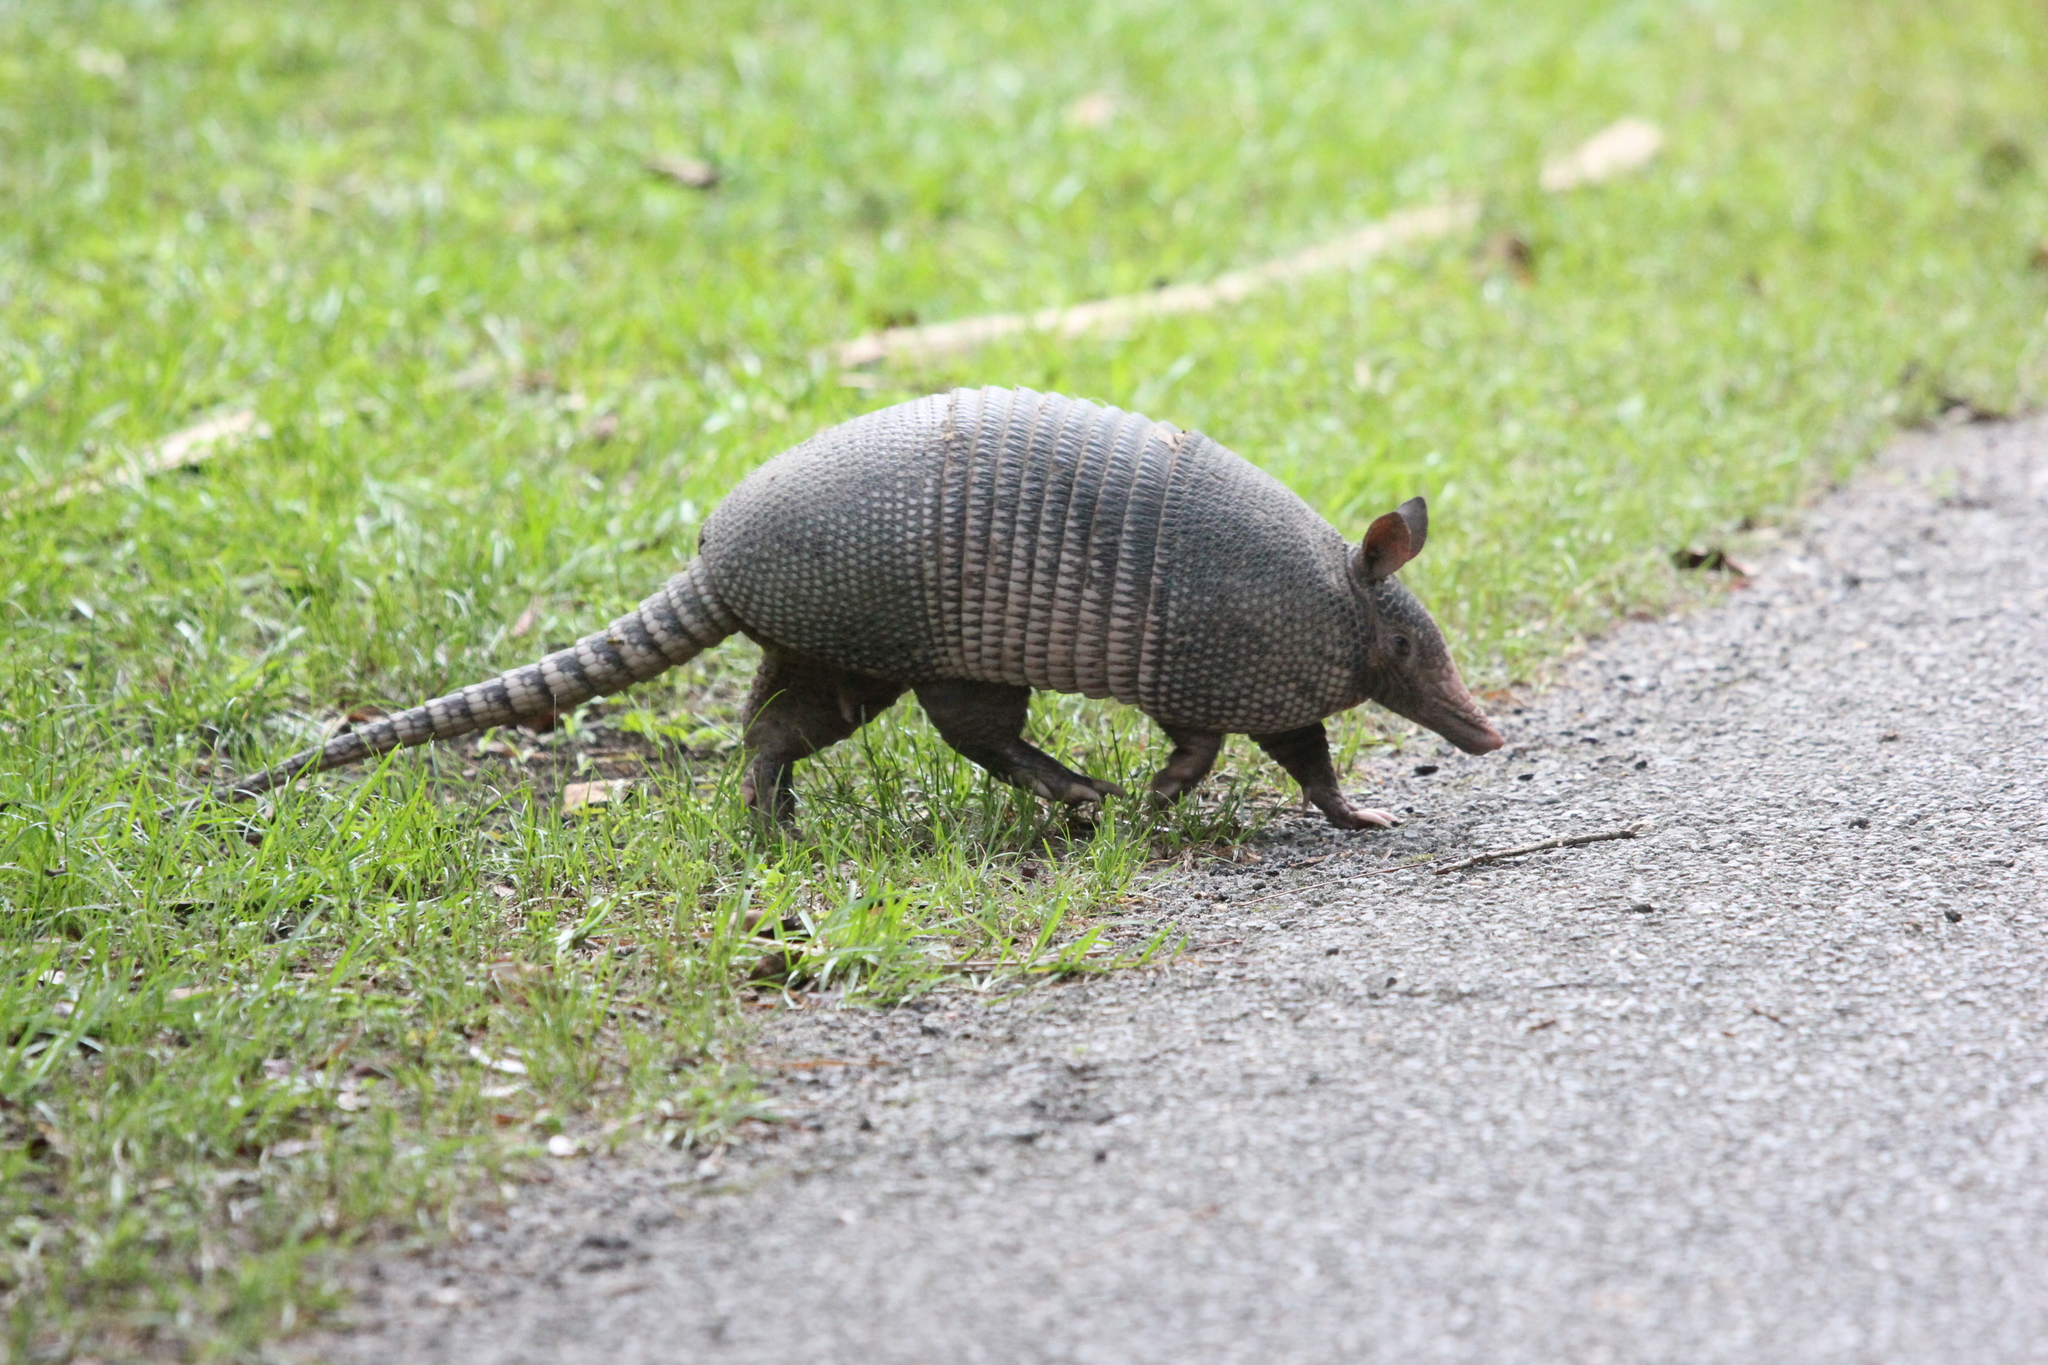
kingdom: Animalia
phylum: Chordata
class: Mammalia
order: Cingulata
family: Dasypodidae
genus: Dasypus
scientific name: Dasypus novemcinctus
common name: Nine-banded armadillo
